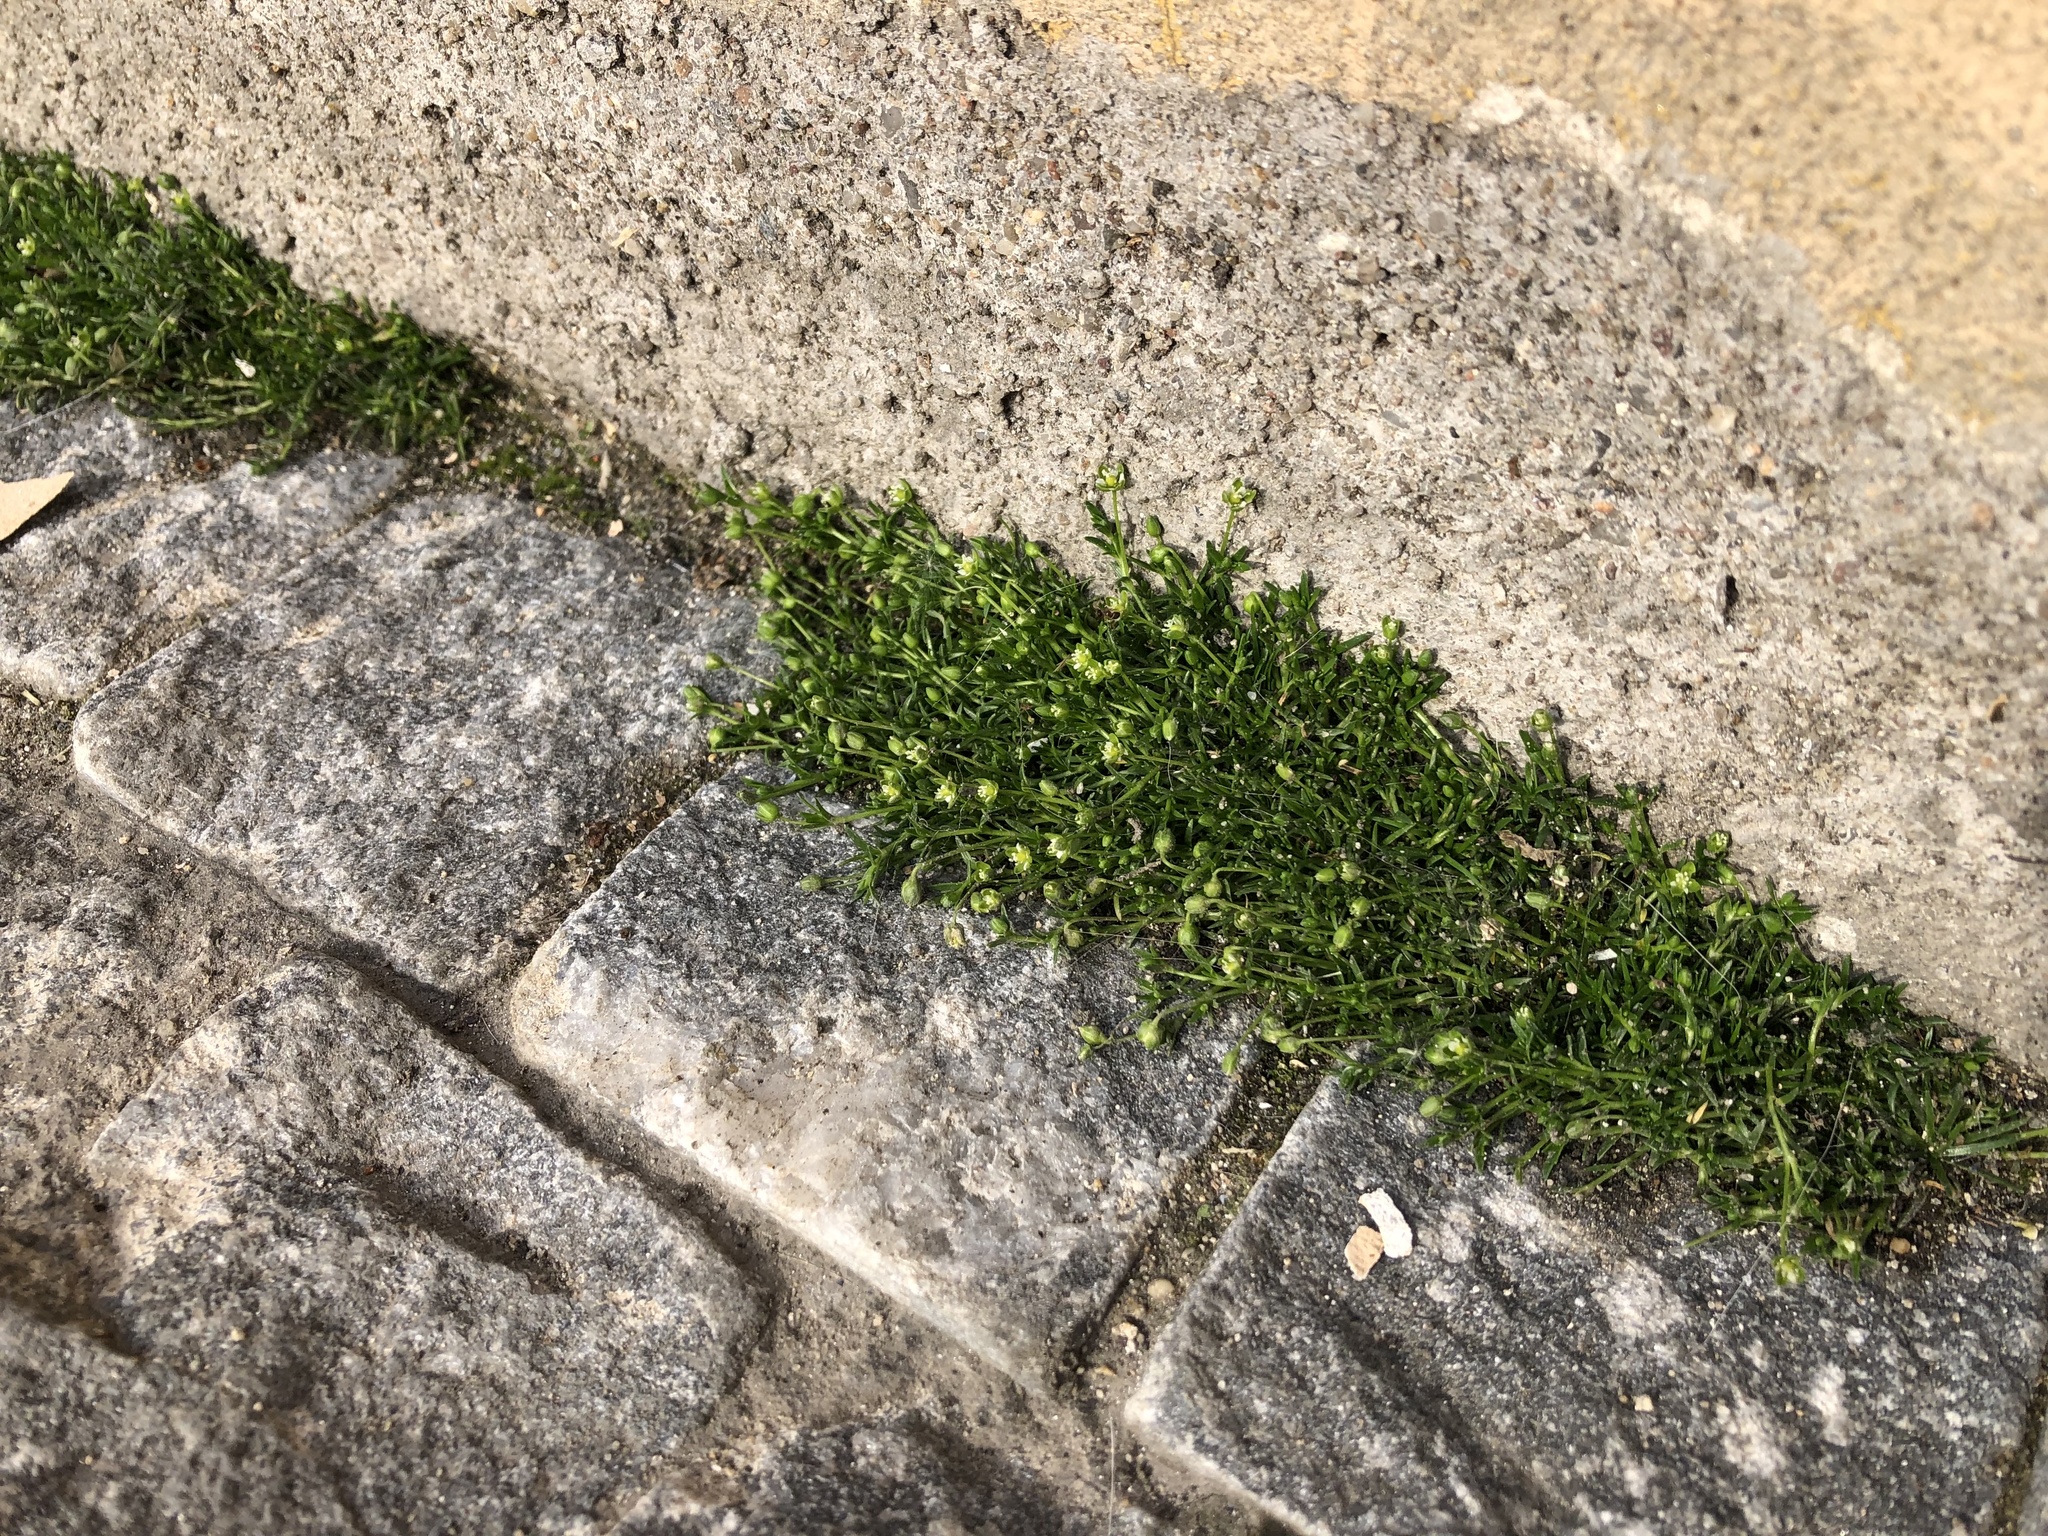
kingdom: Plantae
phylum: Tracheophyta
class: Magnoliopsida
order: Caryophyllales
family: Caryophyllaceae
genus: Sagina
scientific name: Sagina procumbens
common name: Procumbent pearlwort
